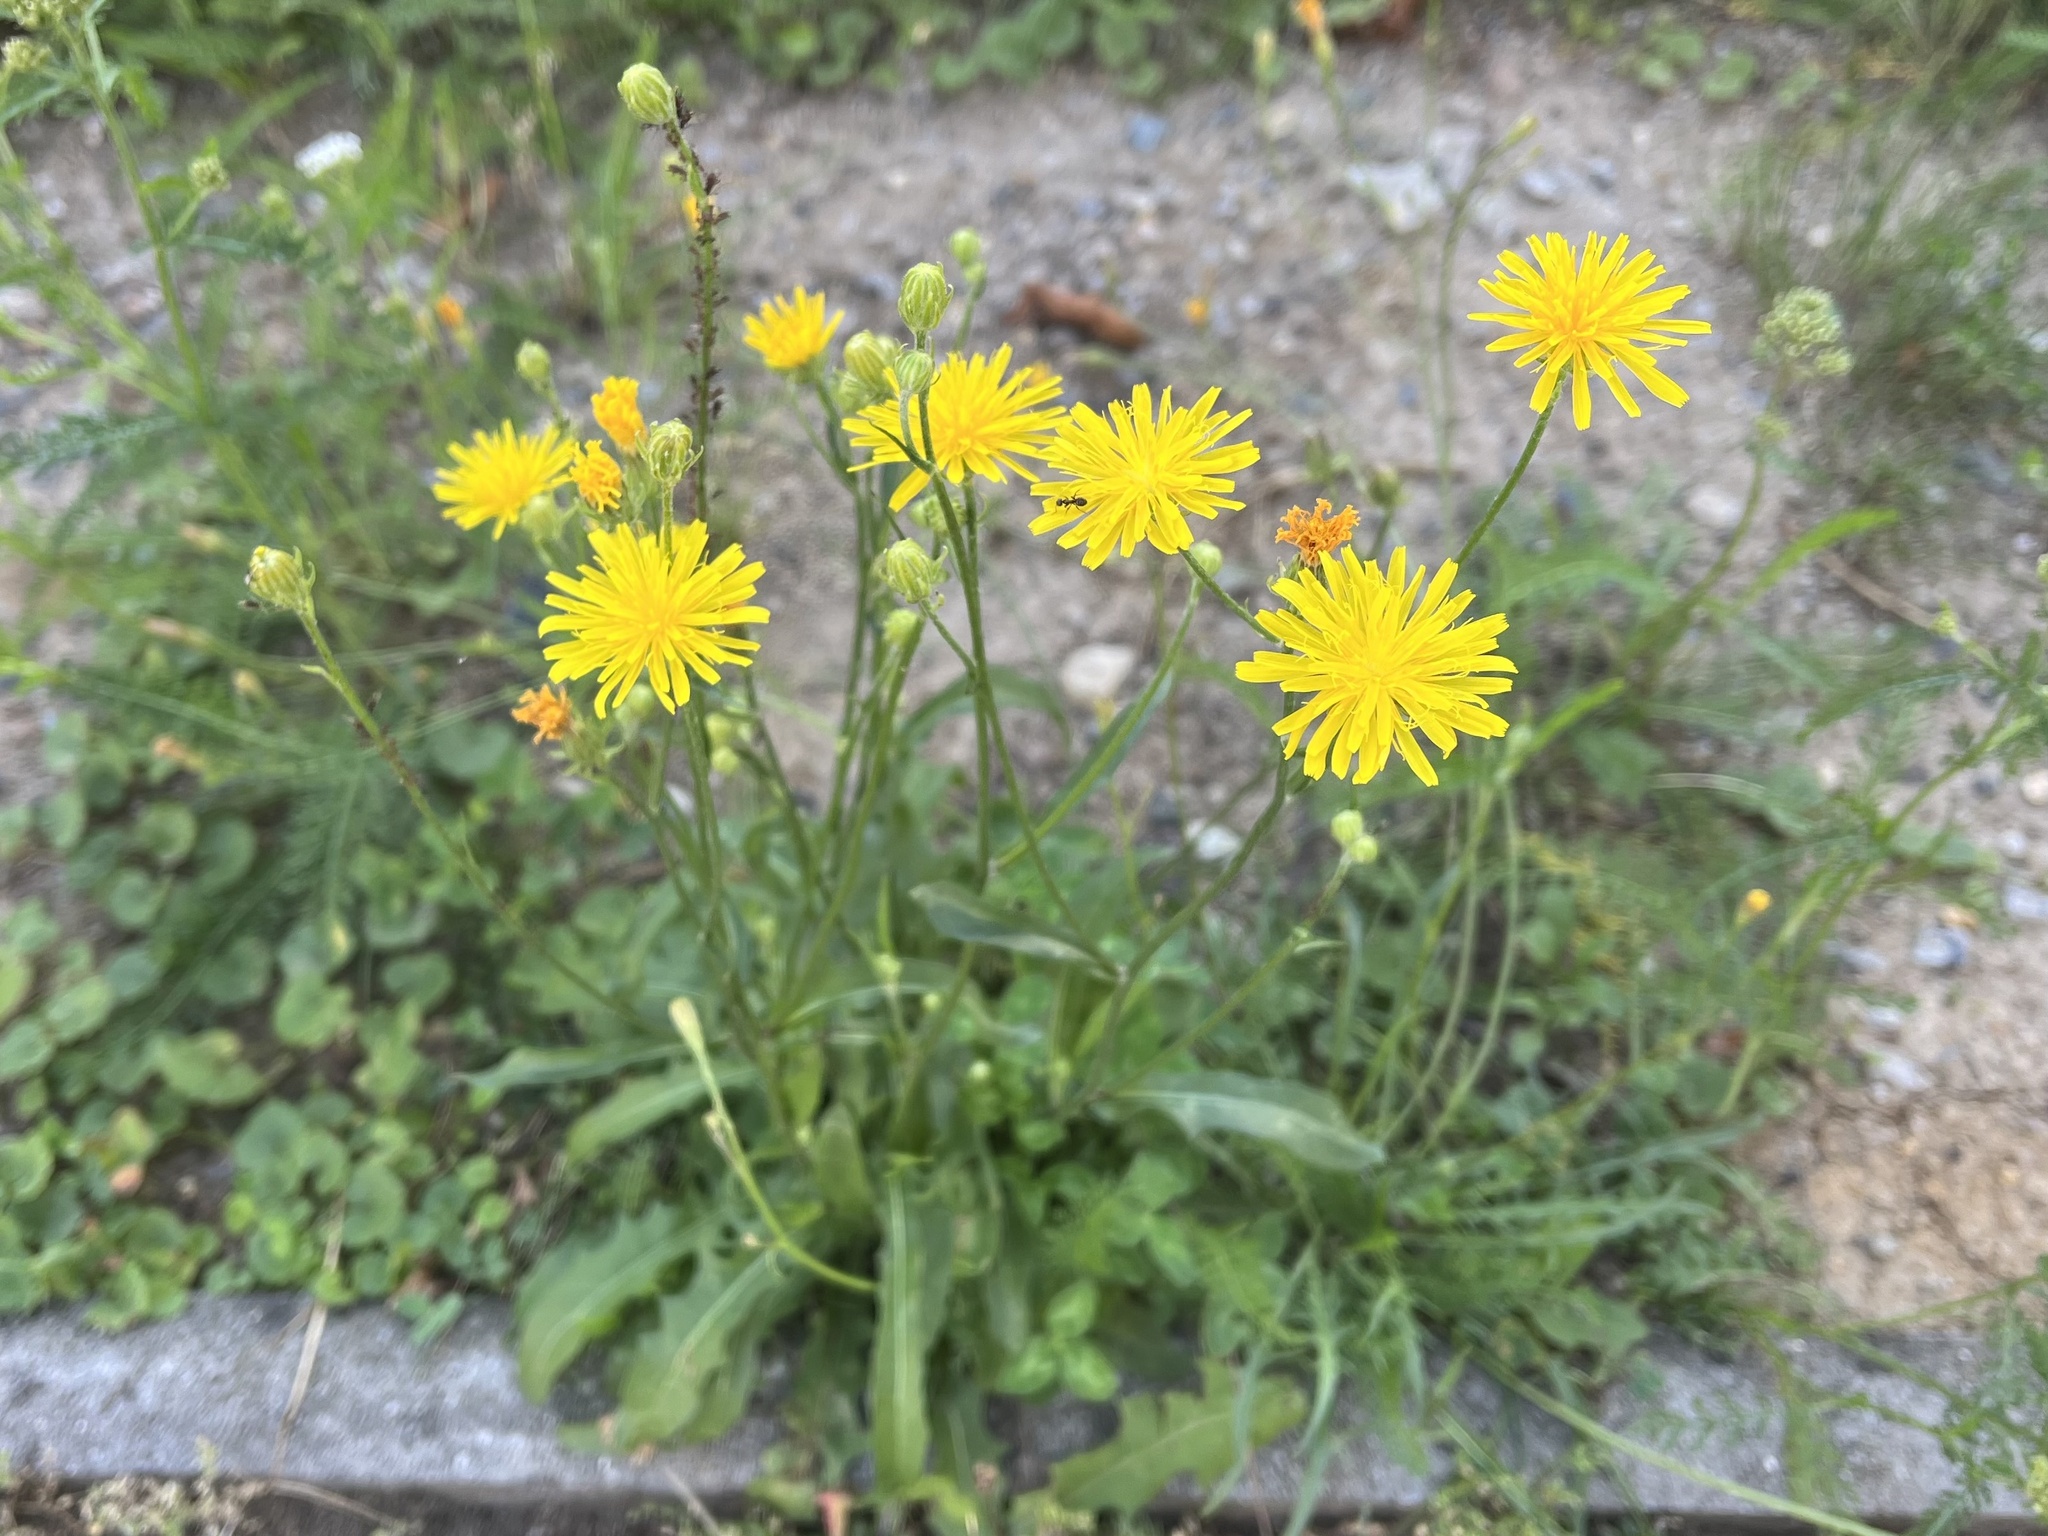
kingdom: Plantae
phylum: Tracheophyta
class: Magnoliopsida
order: Asterales
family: Asteraceae
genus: Crepis
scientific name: Crepis biennis
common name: Rough hawk's-beard
